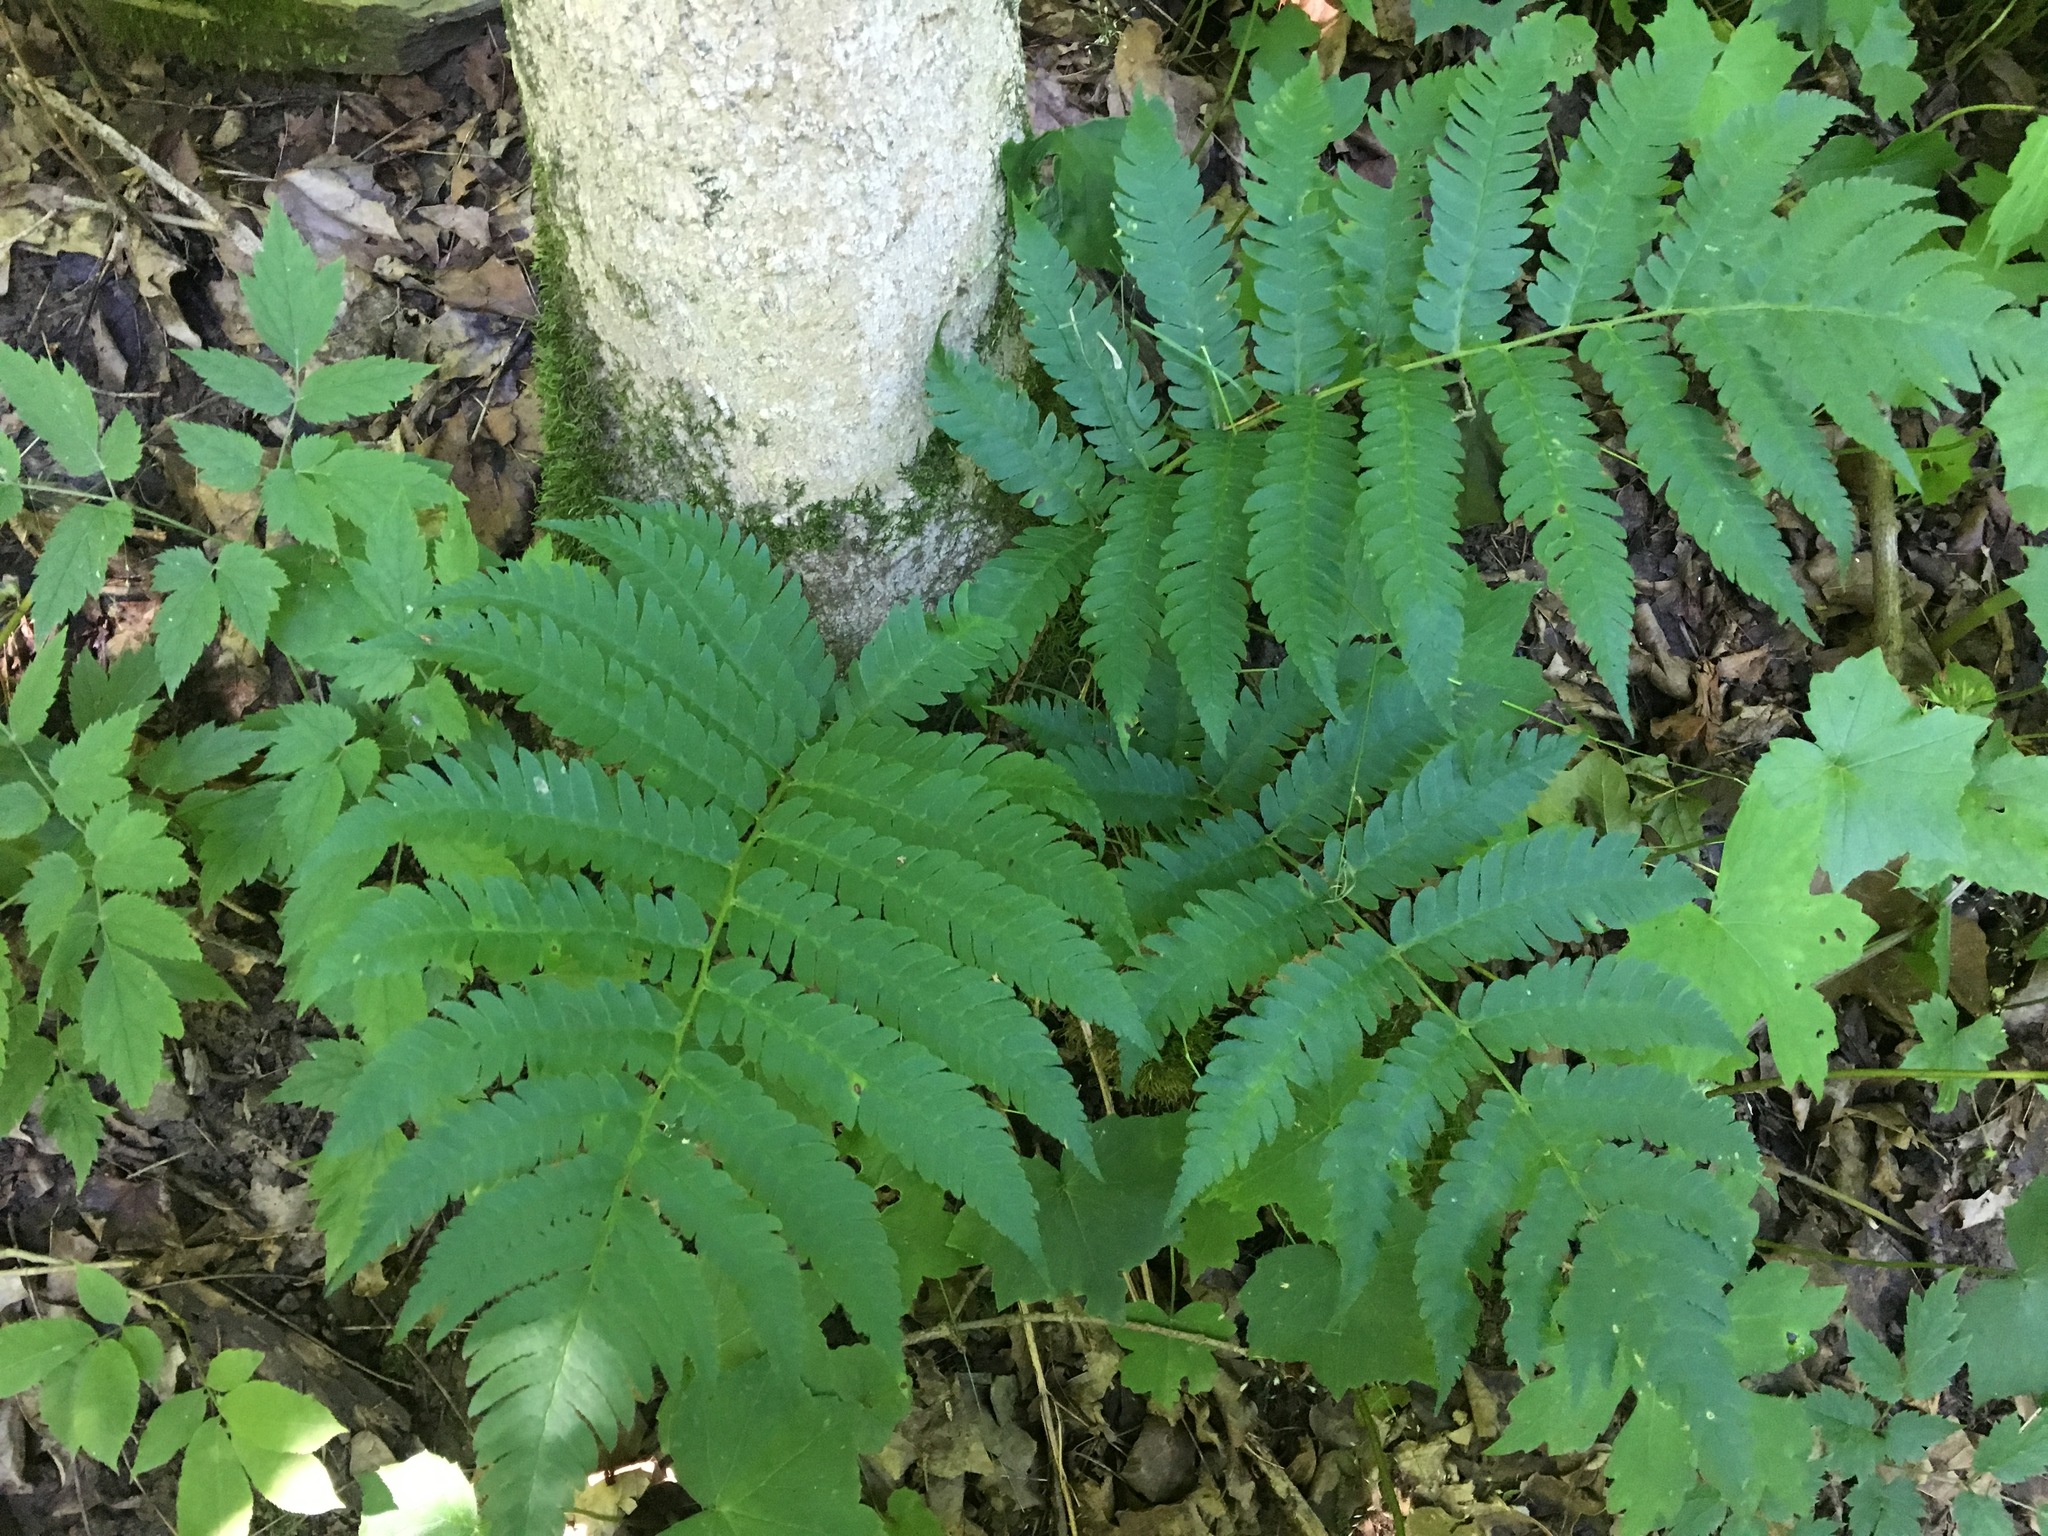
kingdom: Plantae
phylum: Tracheophyta
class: Polypodiopsida
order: Polypodiales
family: Dryopteridaceae
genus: Dryopteris
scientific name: Dryopteris goldieana
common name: Goldie's fern
